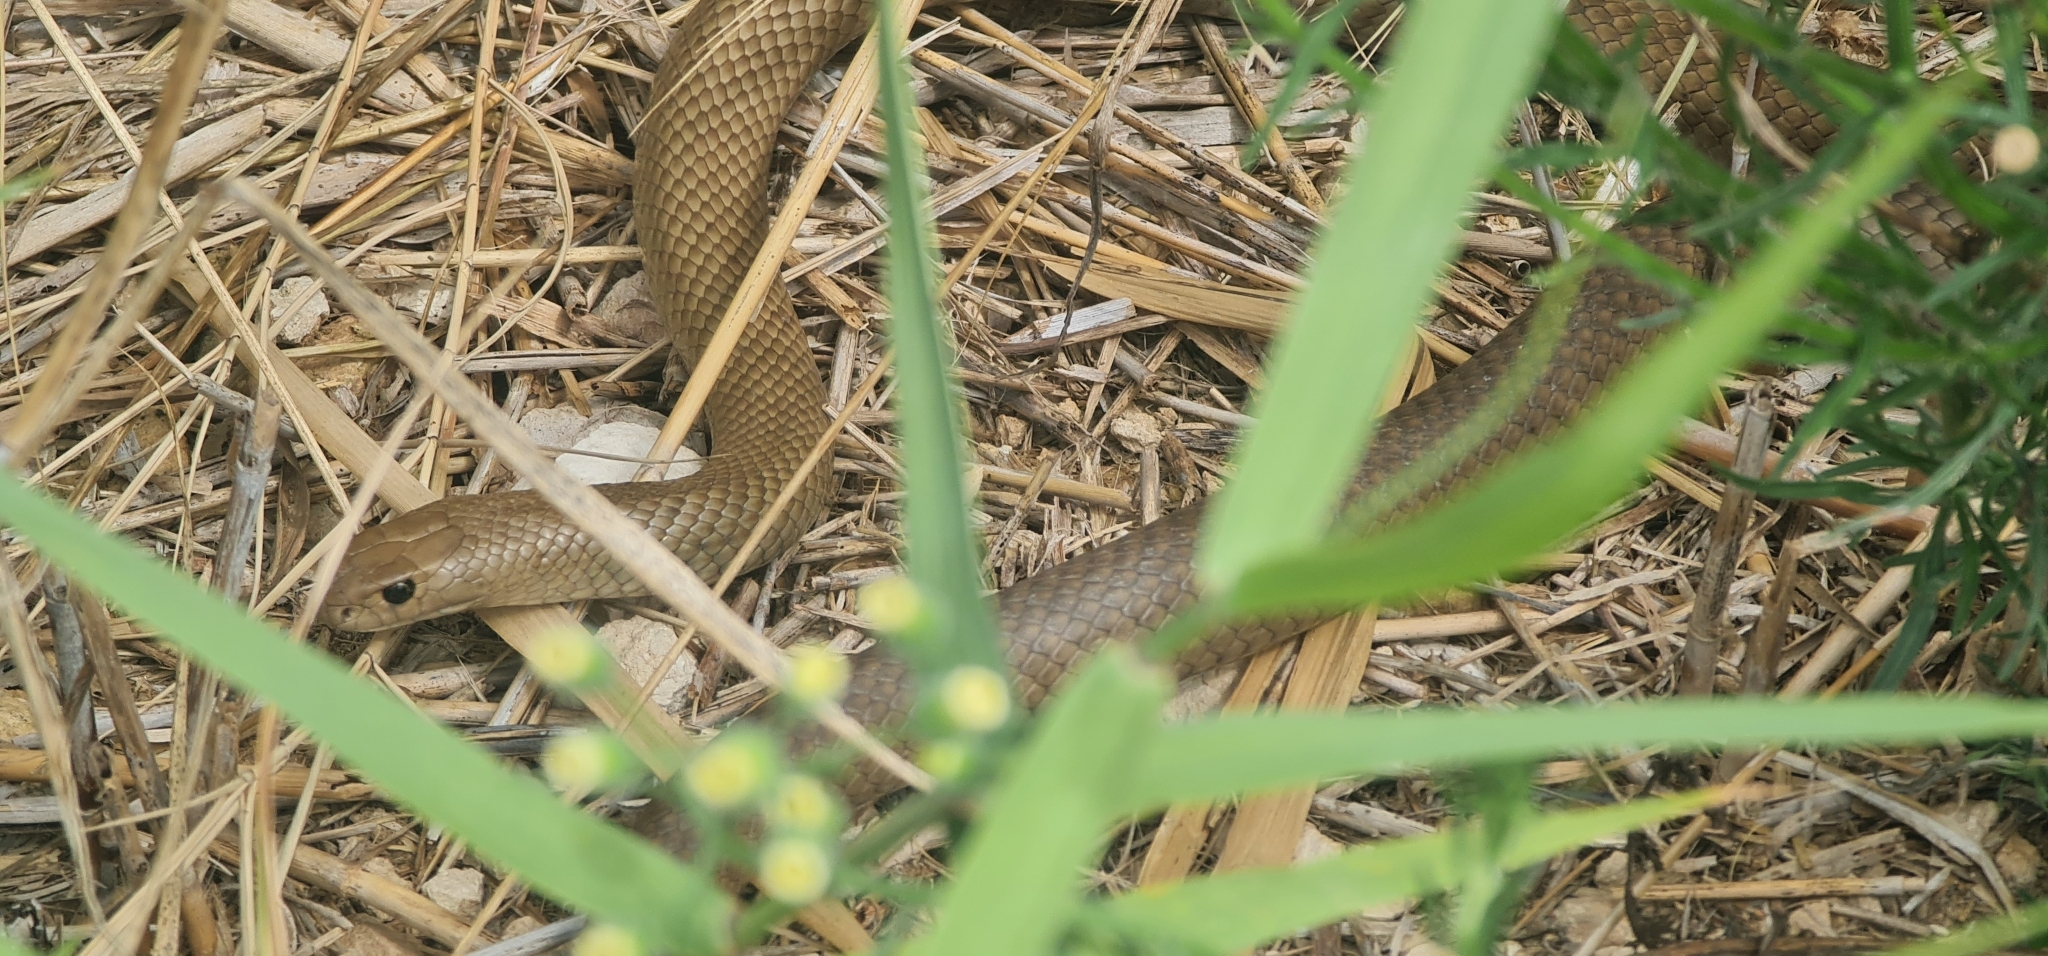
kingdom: Animalia
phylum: Chordata
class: Squamata
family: Elapidae
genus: Pseudonaja
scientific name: Pseudonaja textilis
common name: Eastern brown snake
